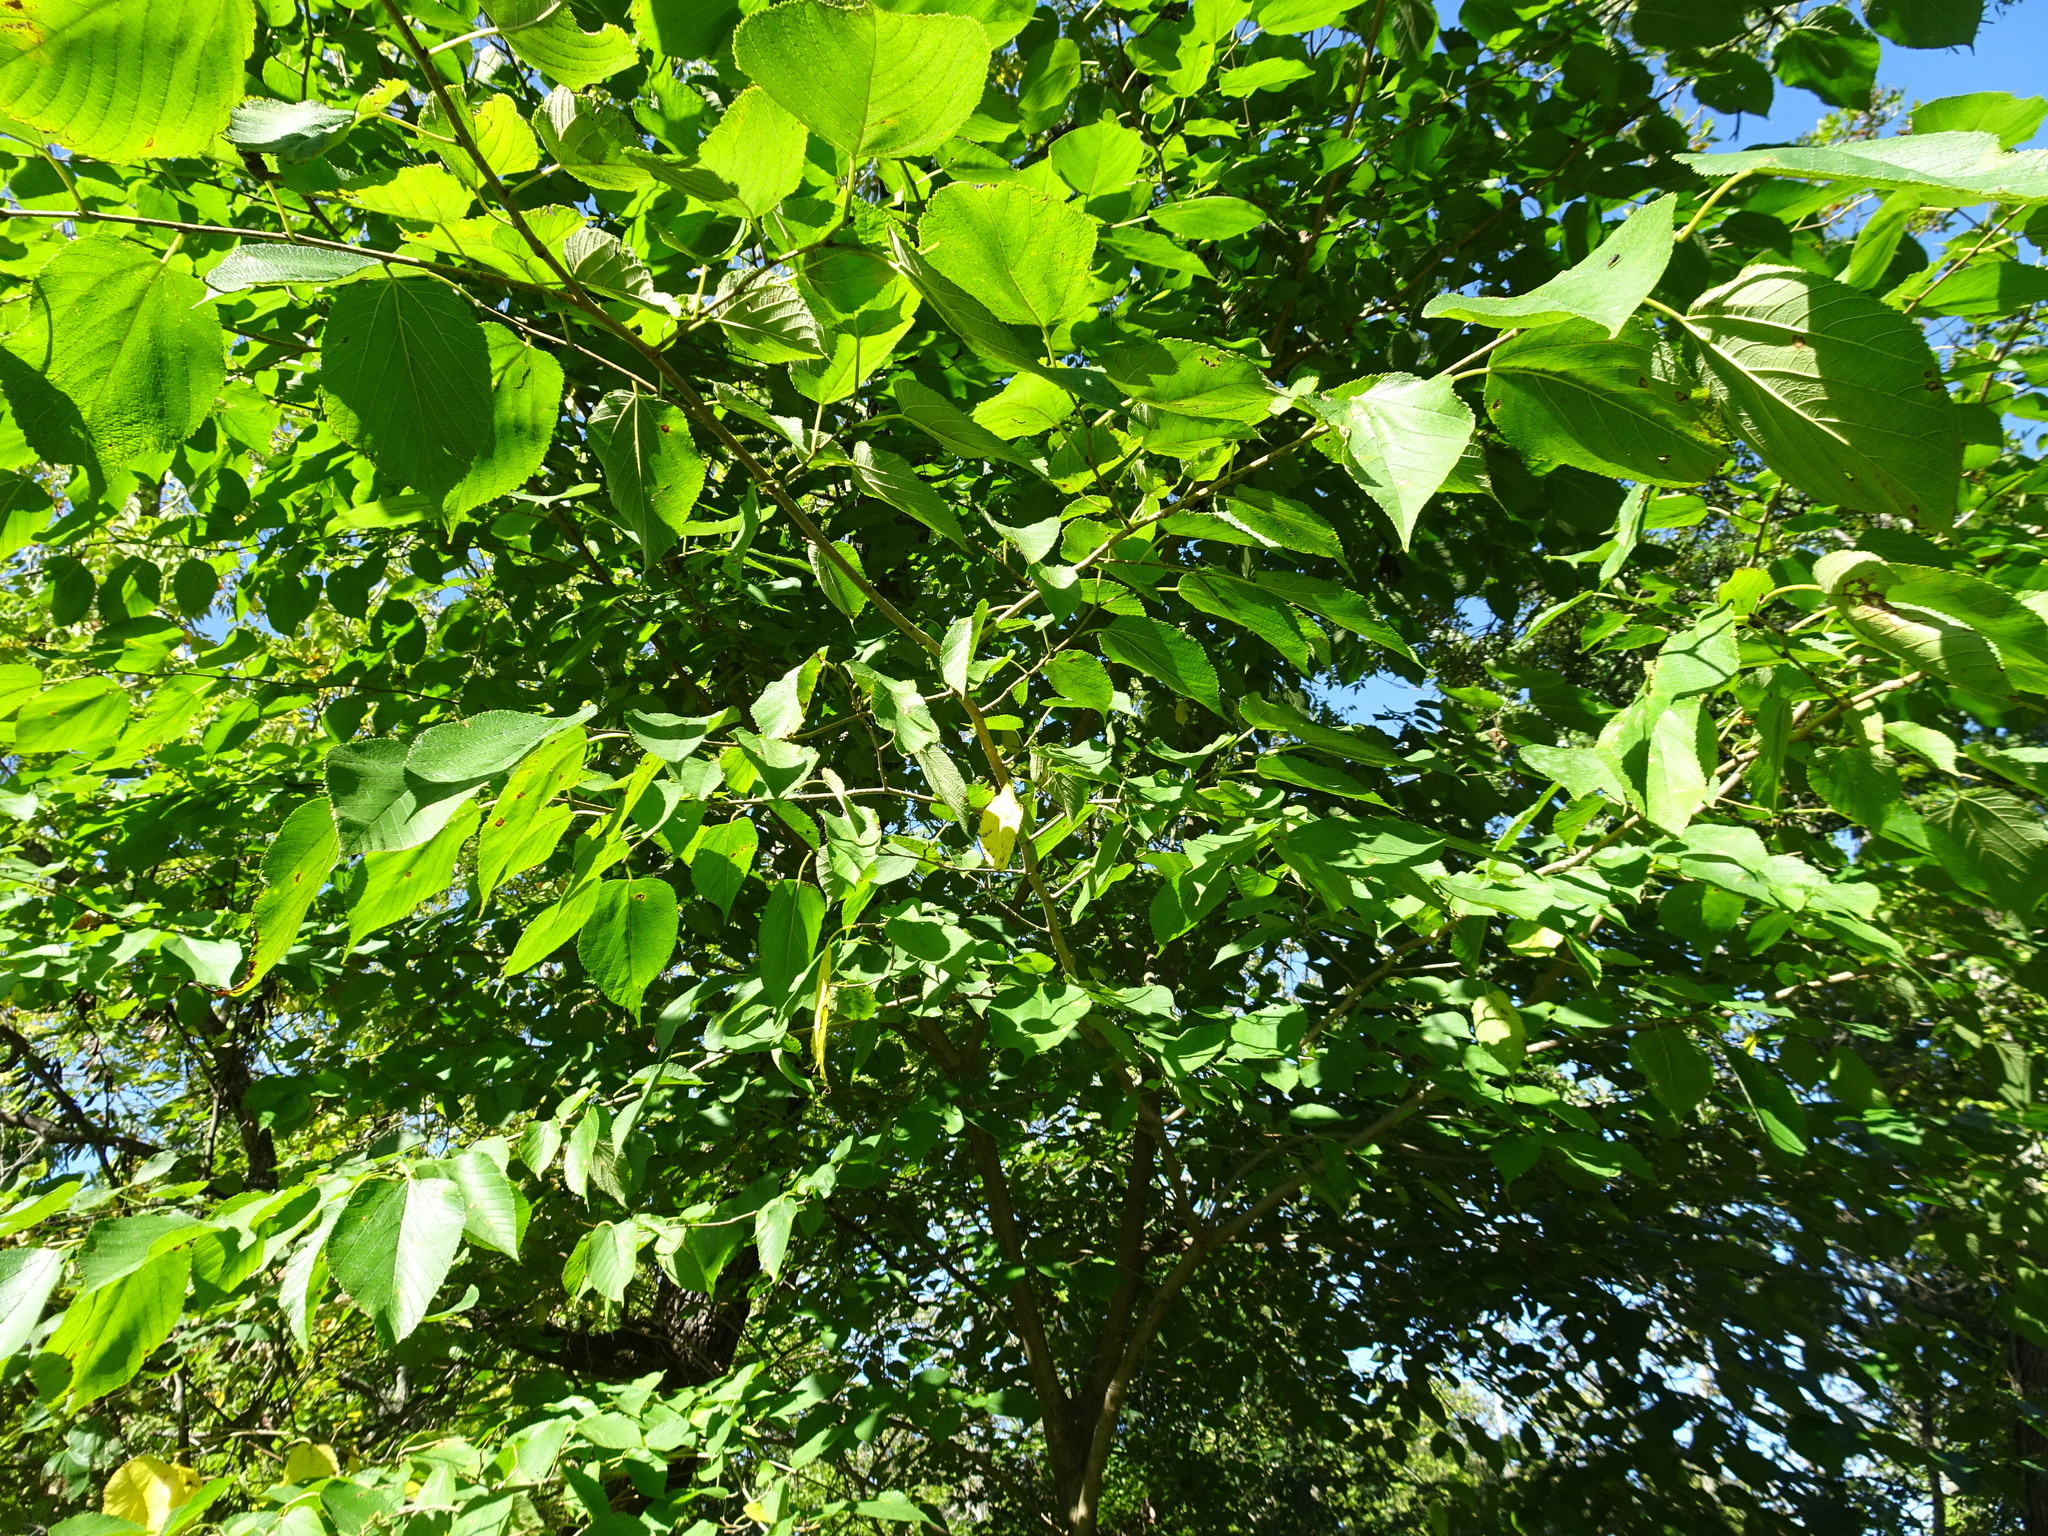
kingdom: Plantae
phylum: Tracheophyta
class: Magnoliopsida
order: Rosales
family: Moraceae
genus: Morus
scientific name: Morus rubra
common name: Red mulberry
